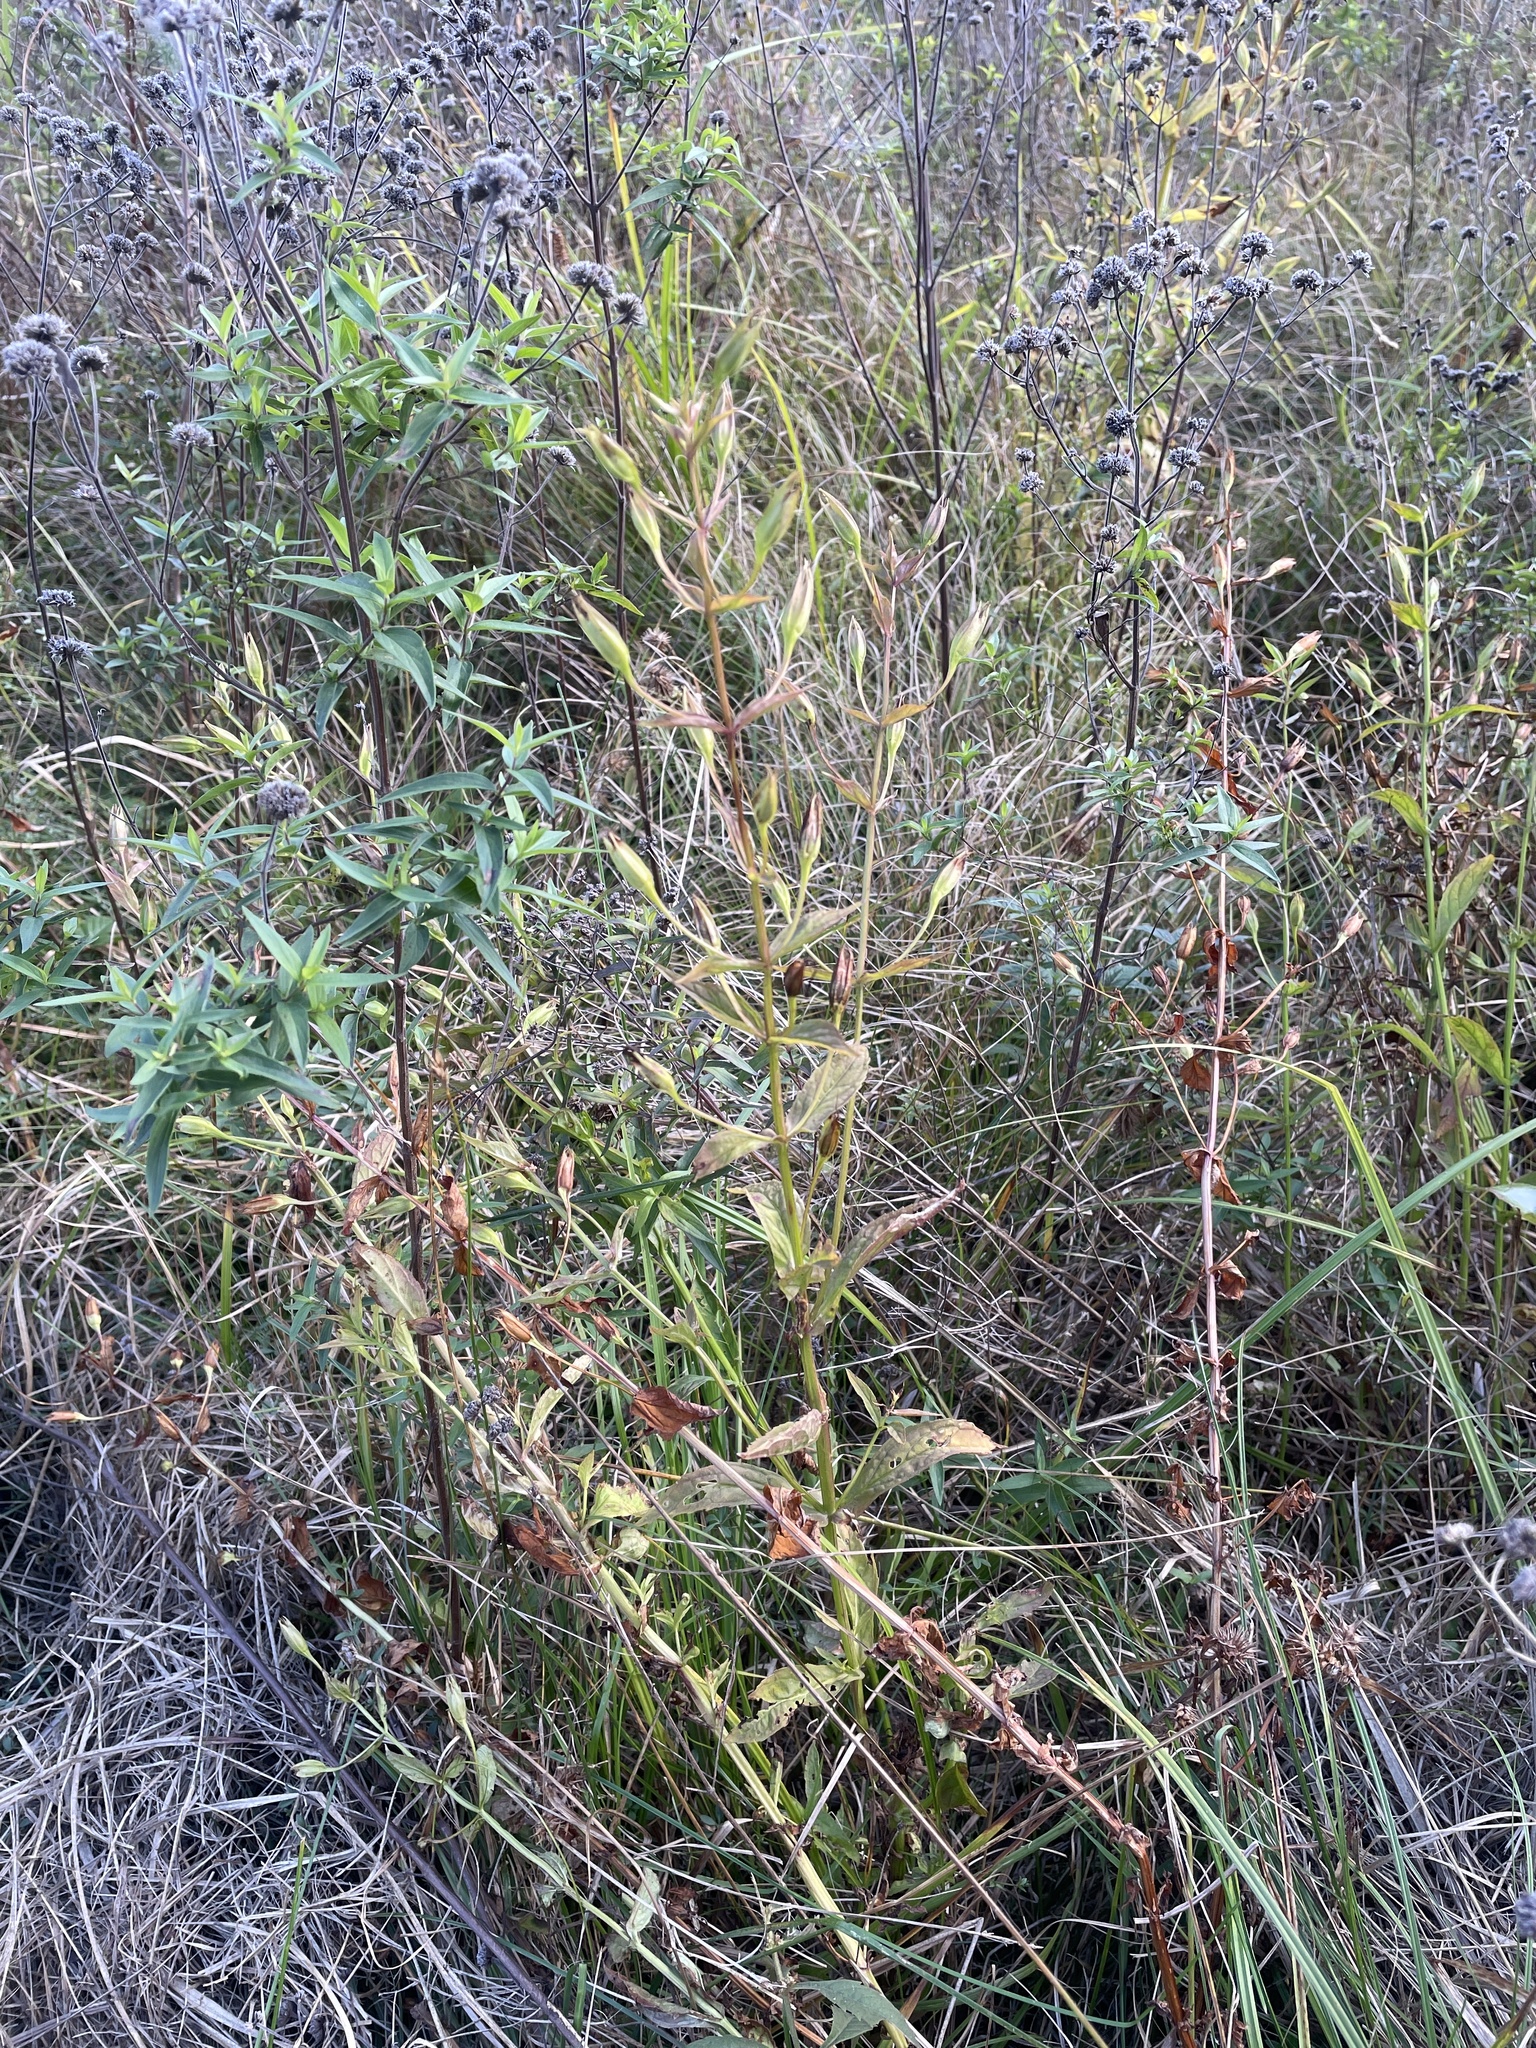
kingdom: Plantae
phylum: Tracheophyta
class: Magnoliopsida
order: Lamiales
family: Phrymaceae
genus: Mimulus
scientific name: Mimulus ringens
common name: Allegheny monkeyflower
